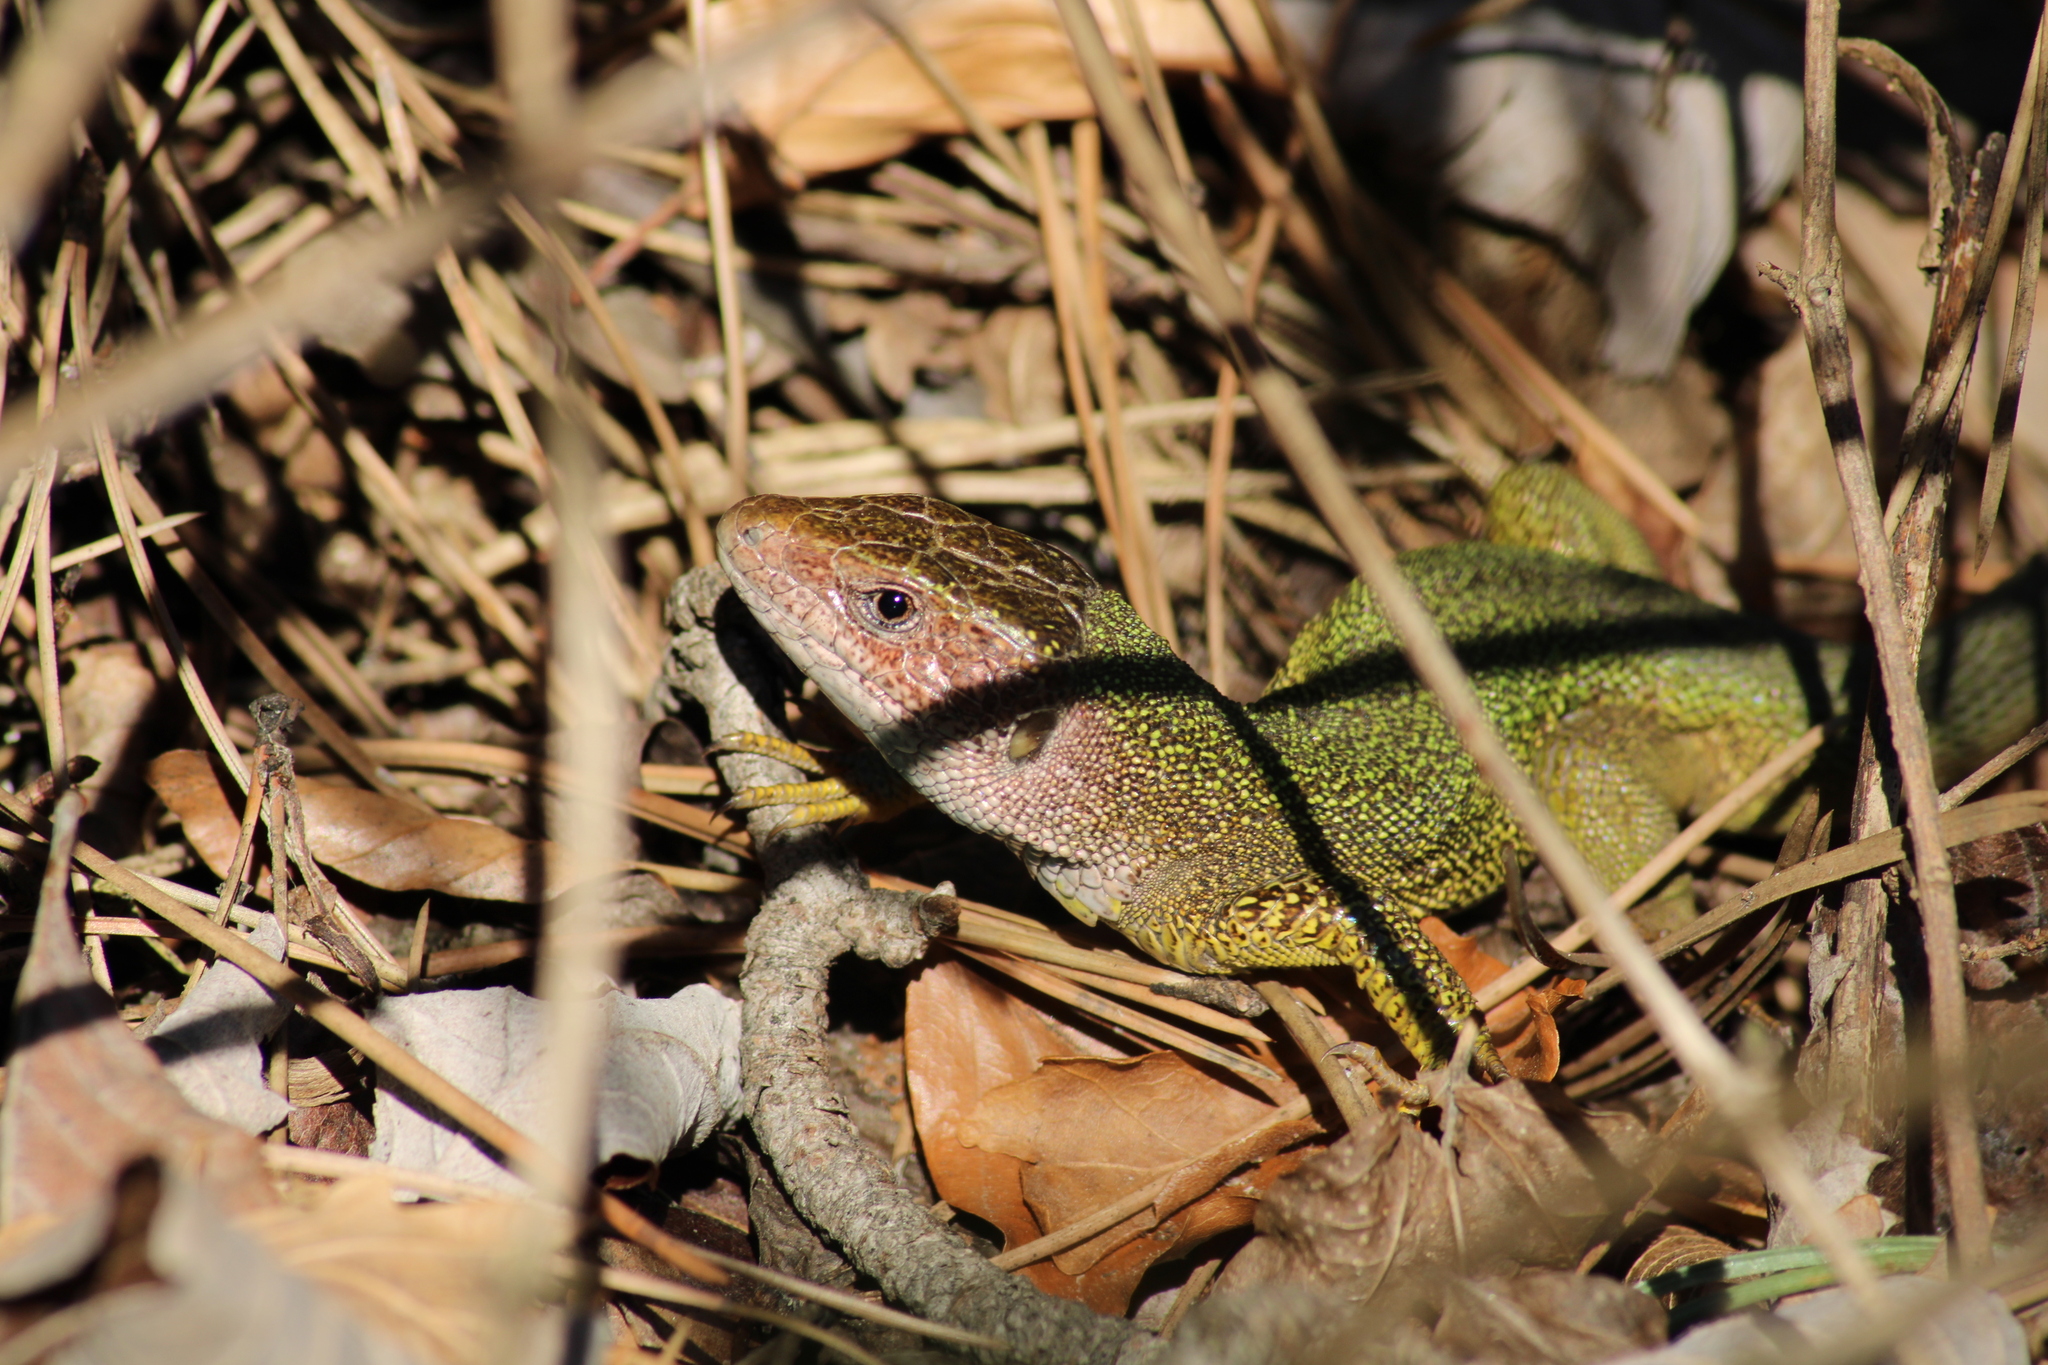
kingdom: Animalia
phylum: Chordata
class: Squamata
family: Lacertidae
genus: Lacerta
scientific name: Lacerta viridis
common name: European green lizard
